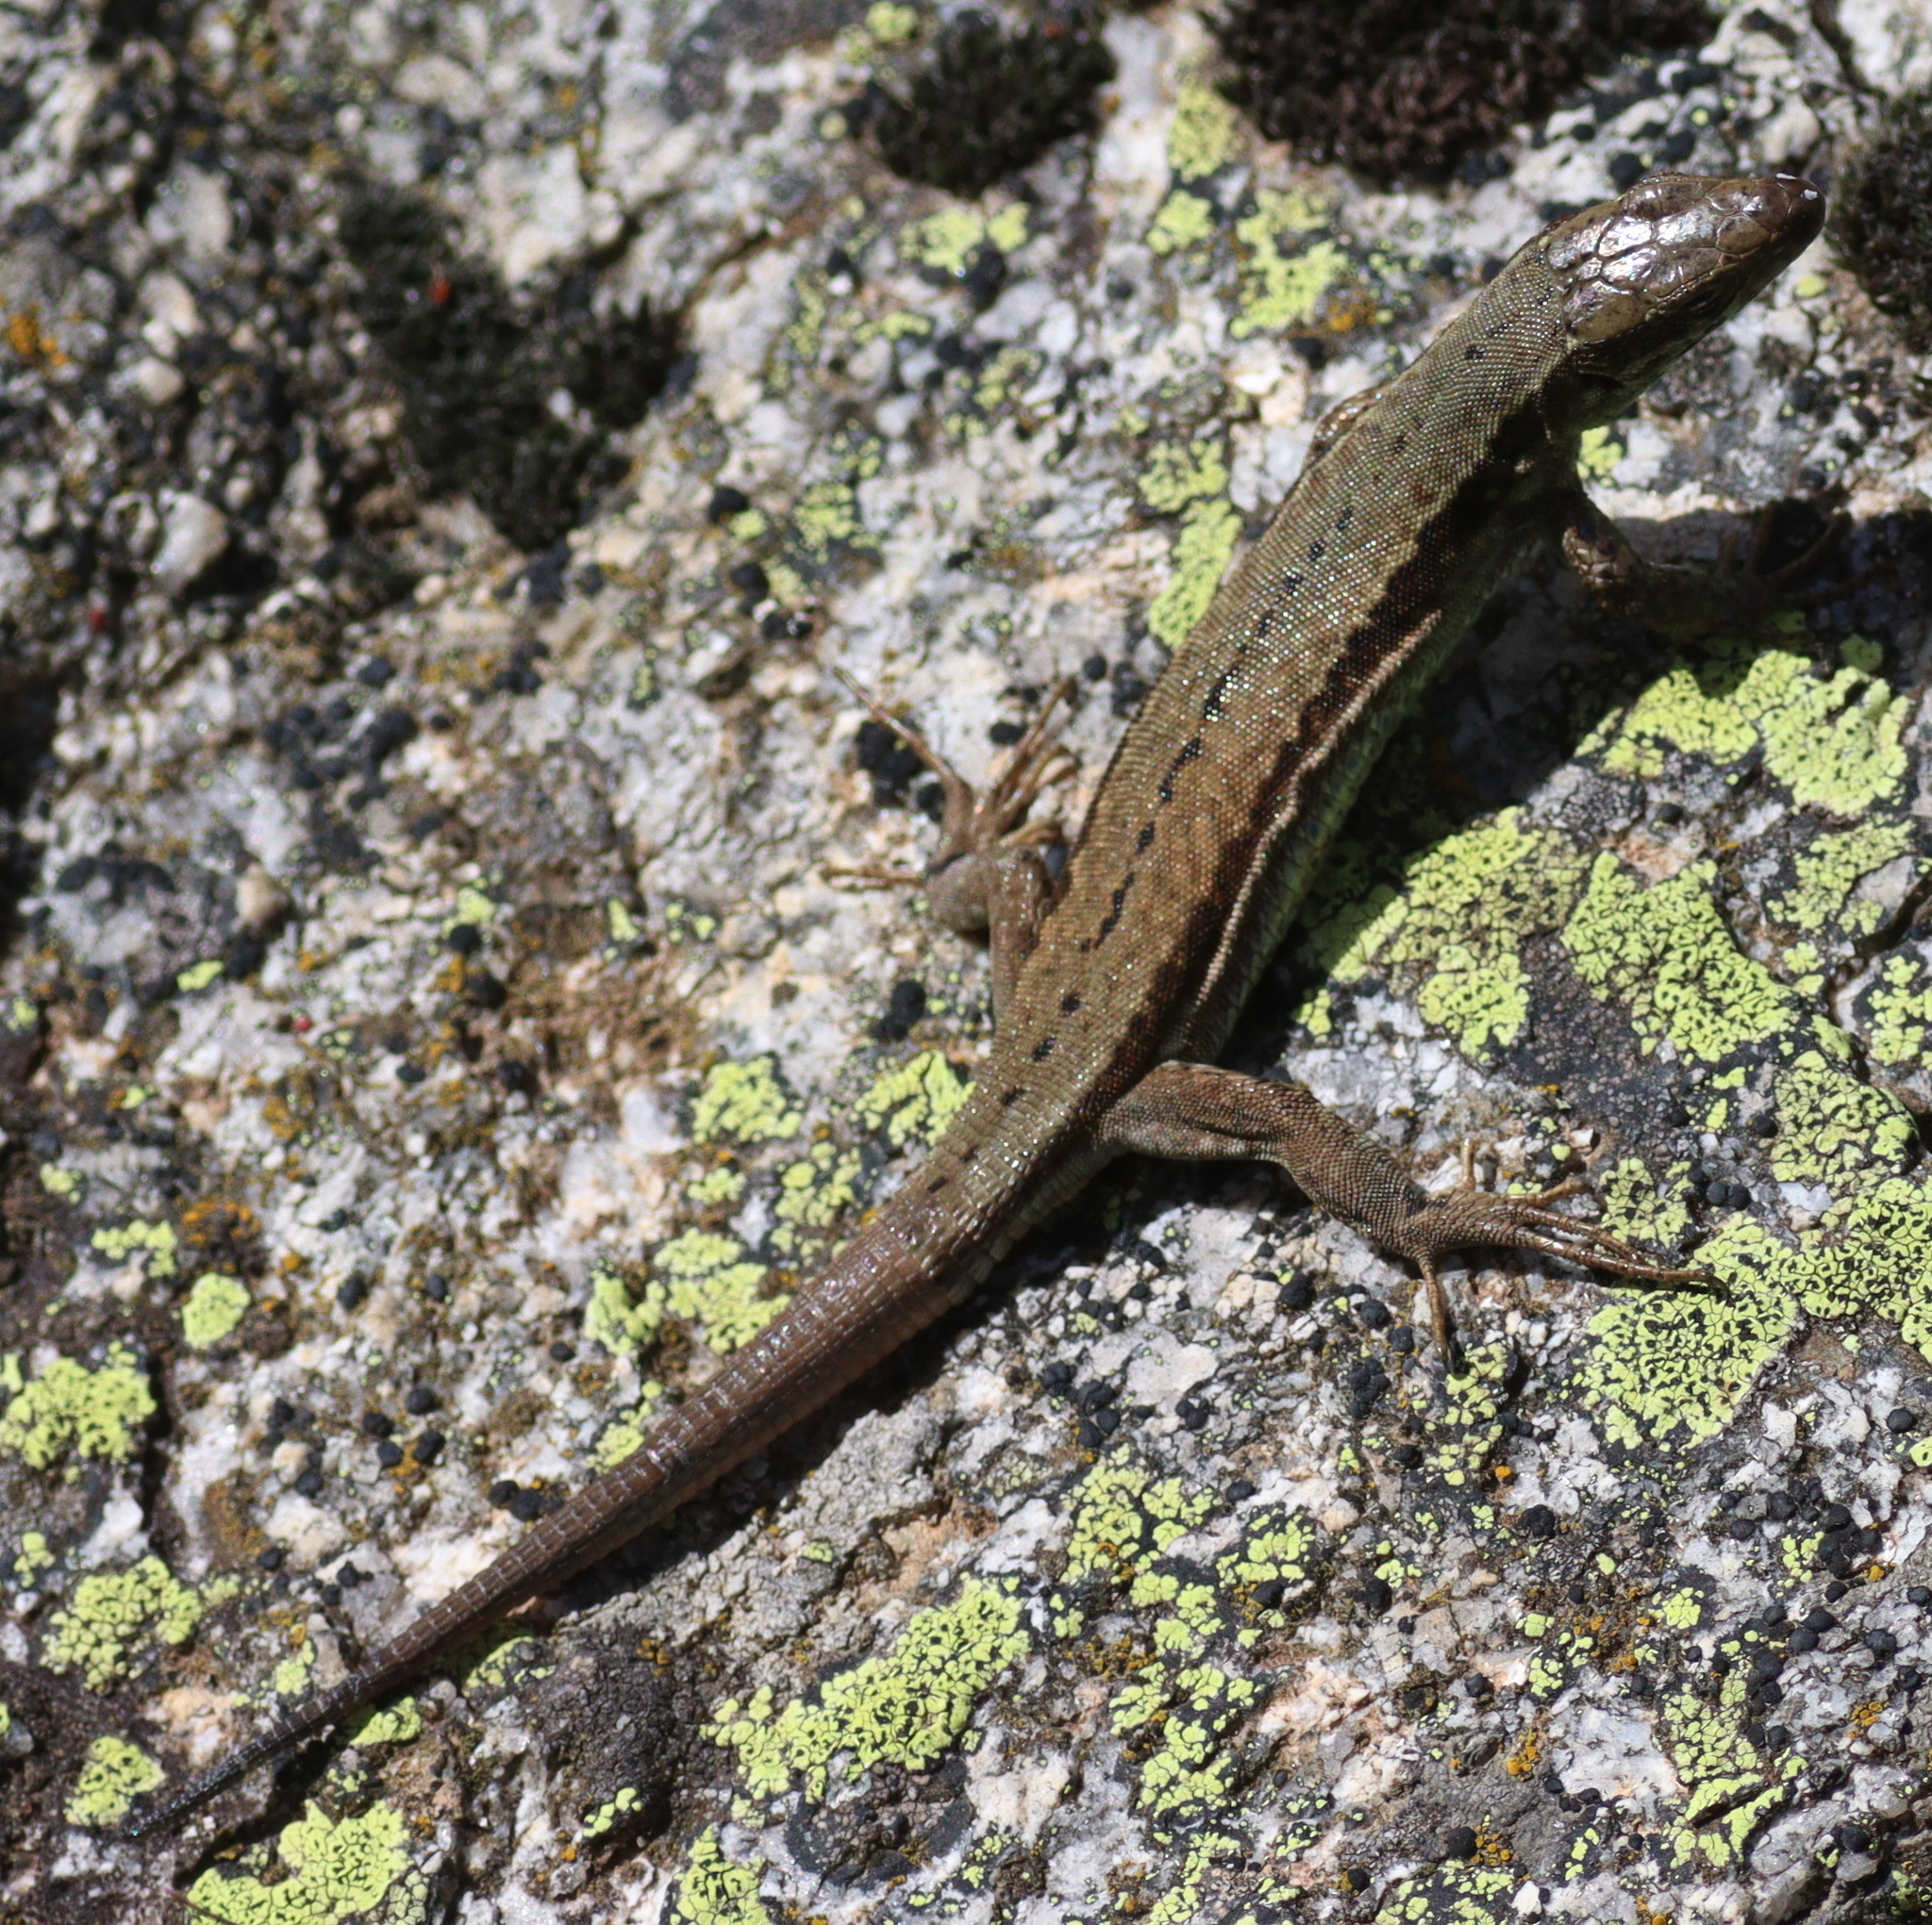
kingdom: Animalia
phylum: Chordata
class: Squamata
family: Lacertidae
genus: Podarcis
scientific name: Podarcis muralis
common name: Common wall lizard
